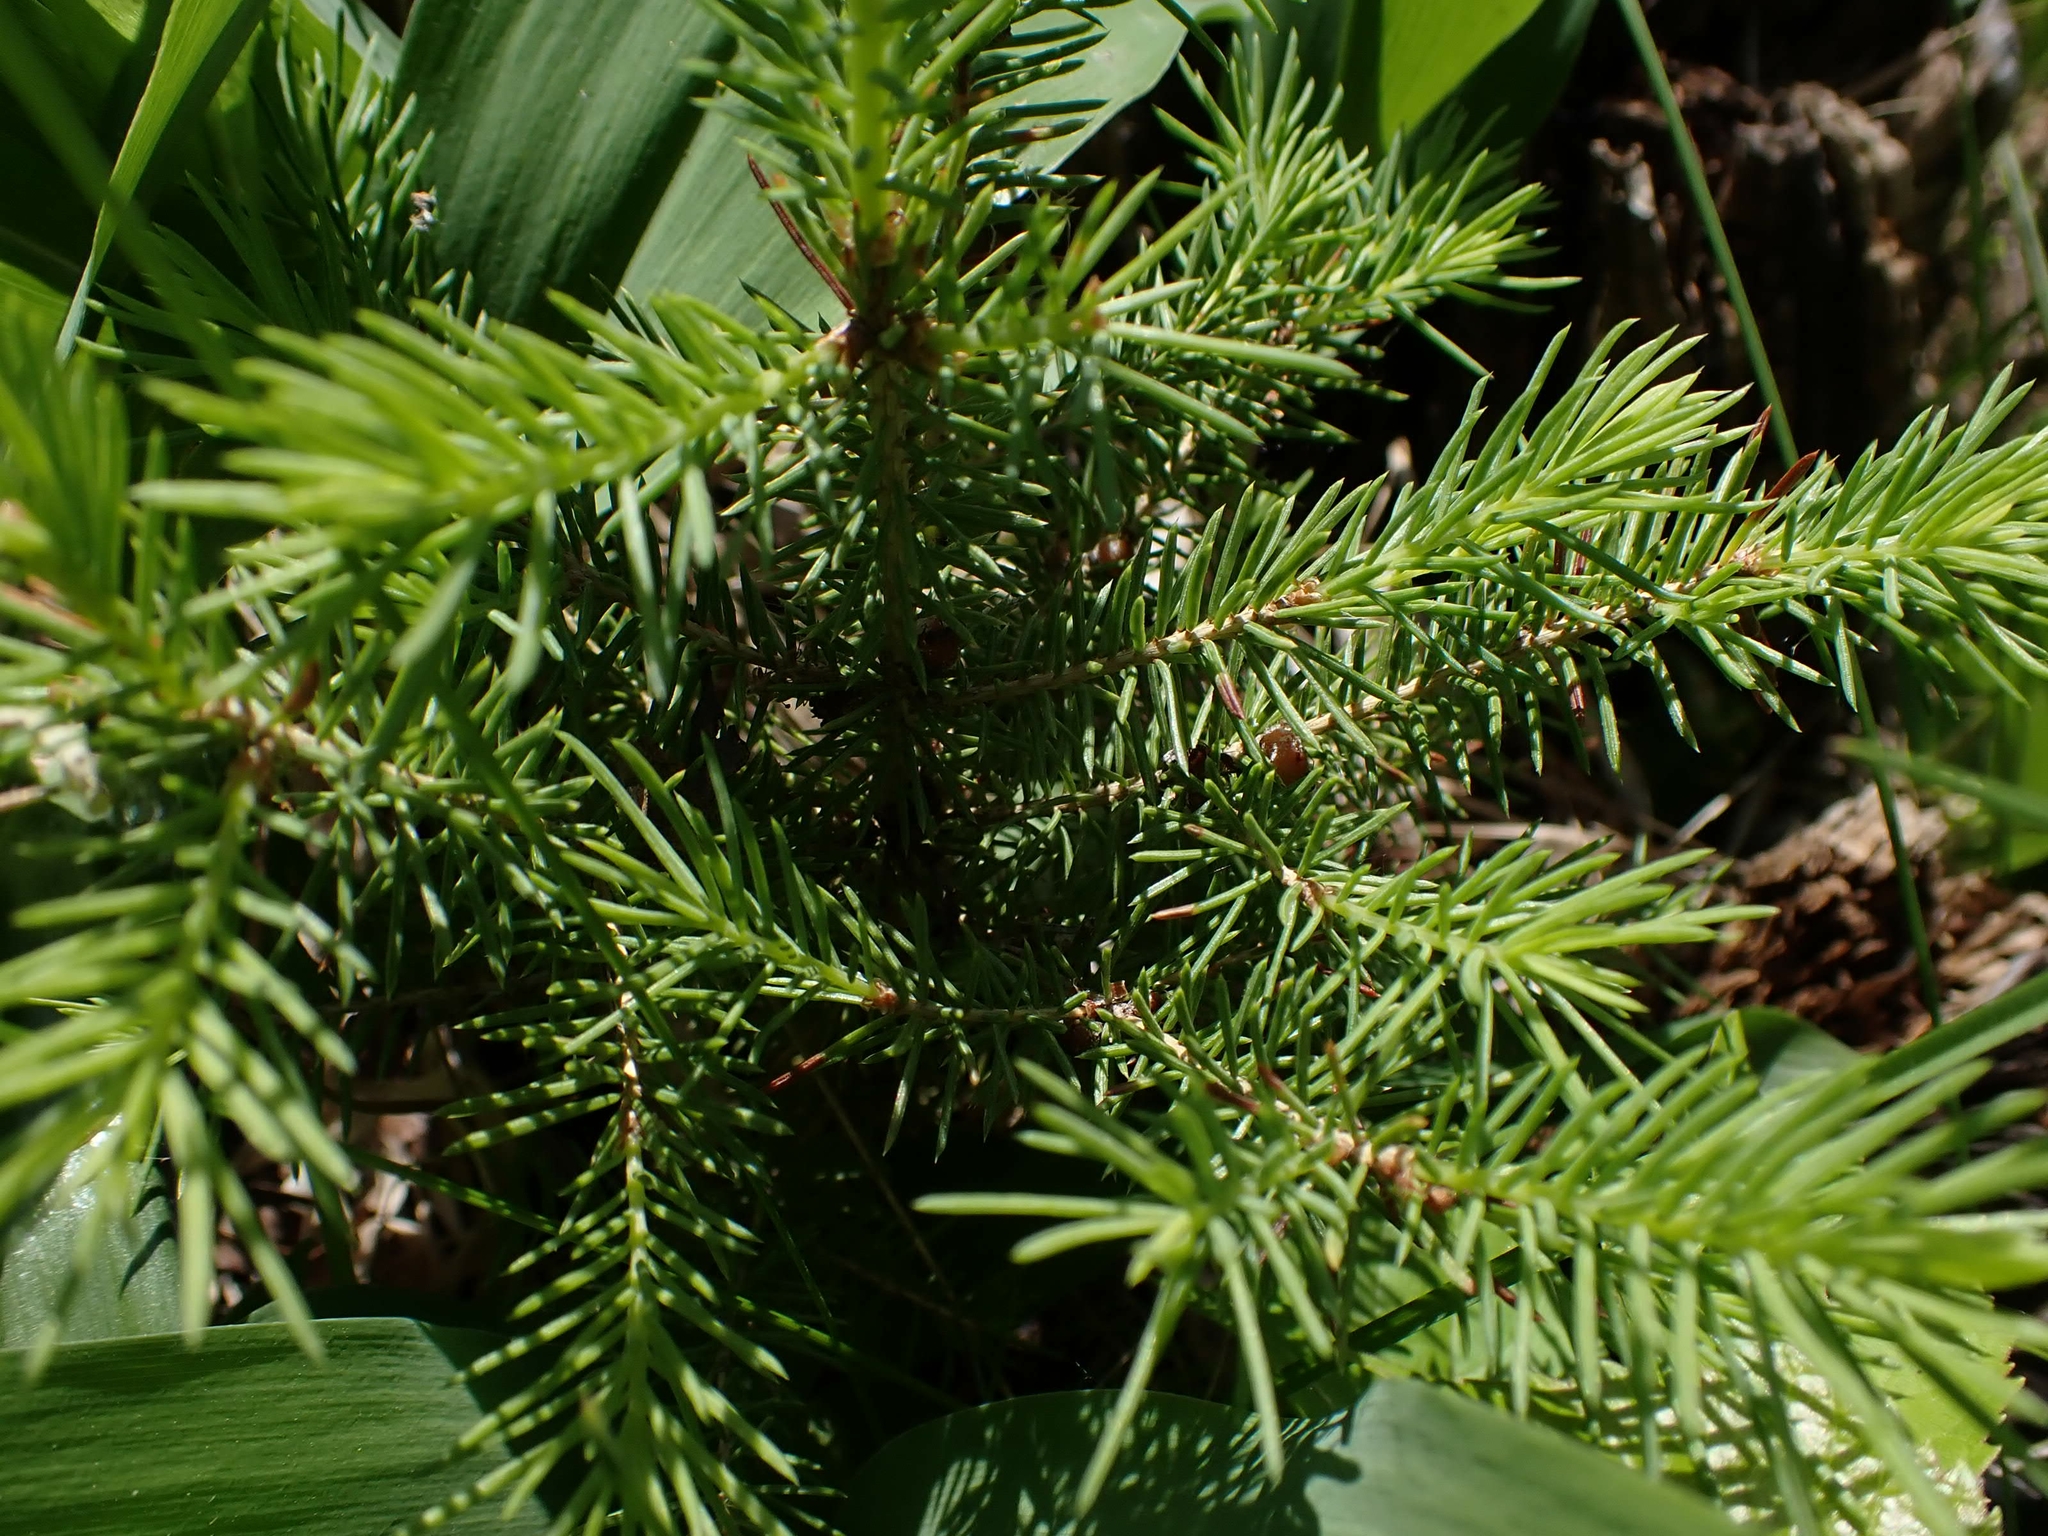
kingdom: Plantae
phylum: Tracheophyta
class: Pinopsida
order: Pinales
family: Pinaceae
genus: Picea
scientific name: Picea glauca
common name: White spruce
